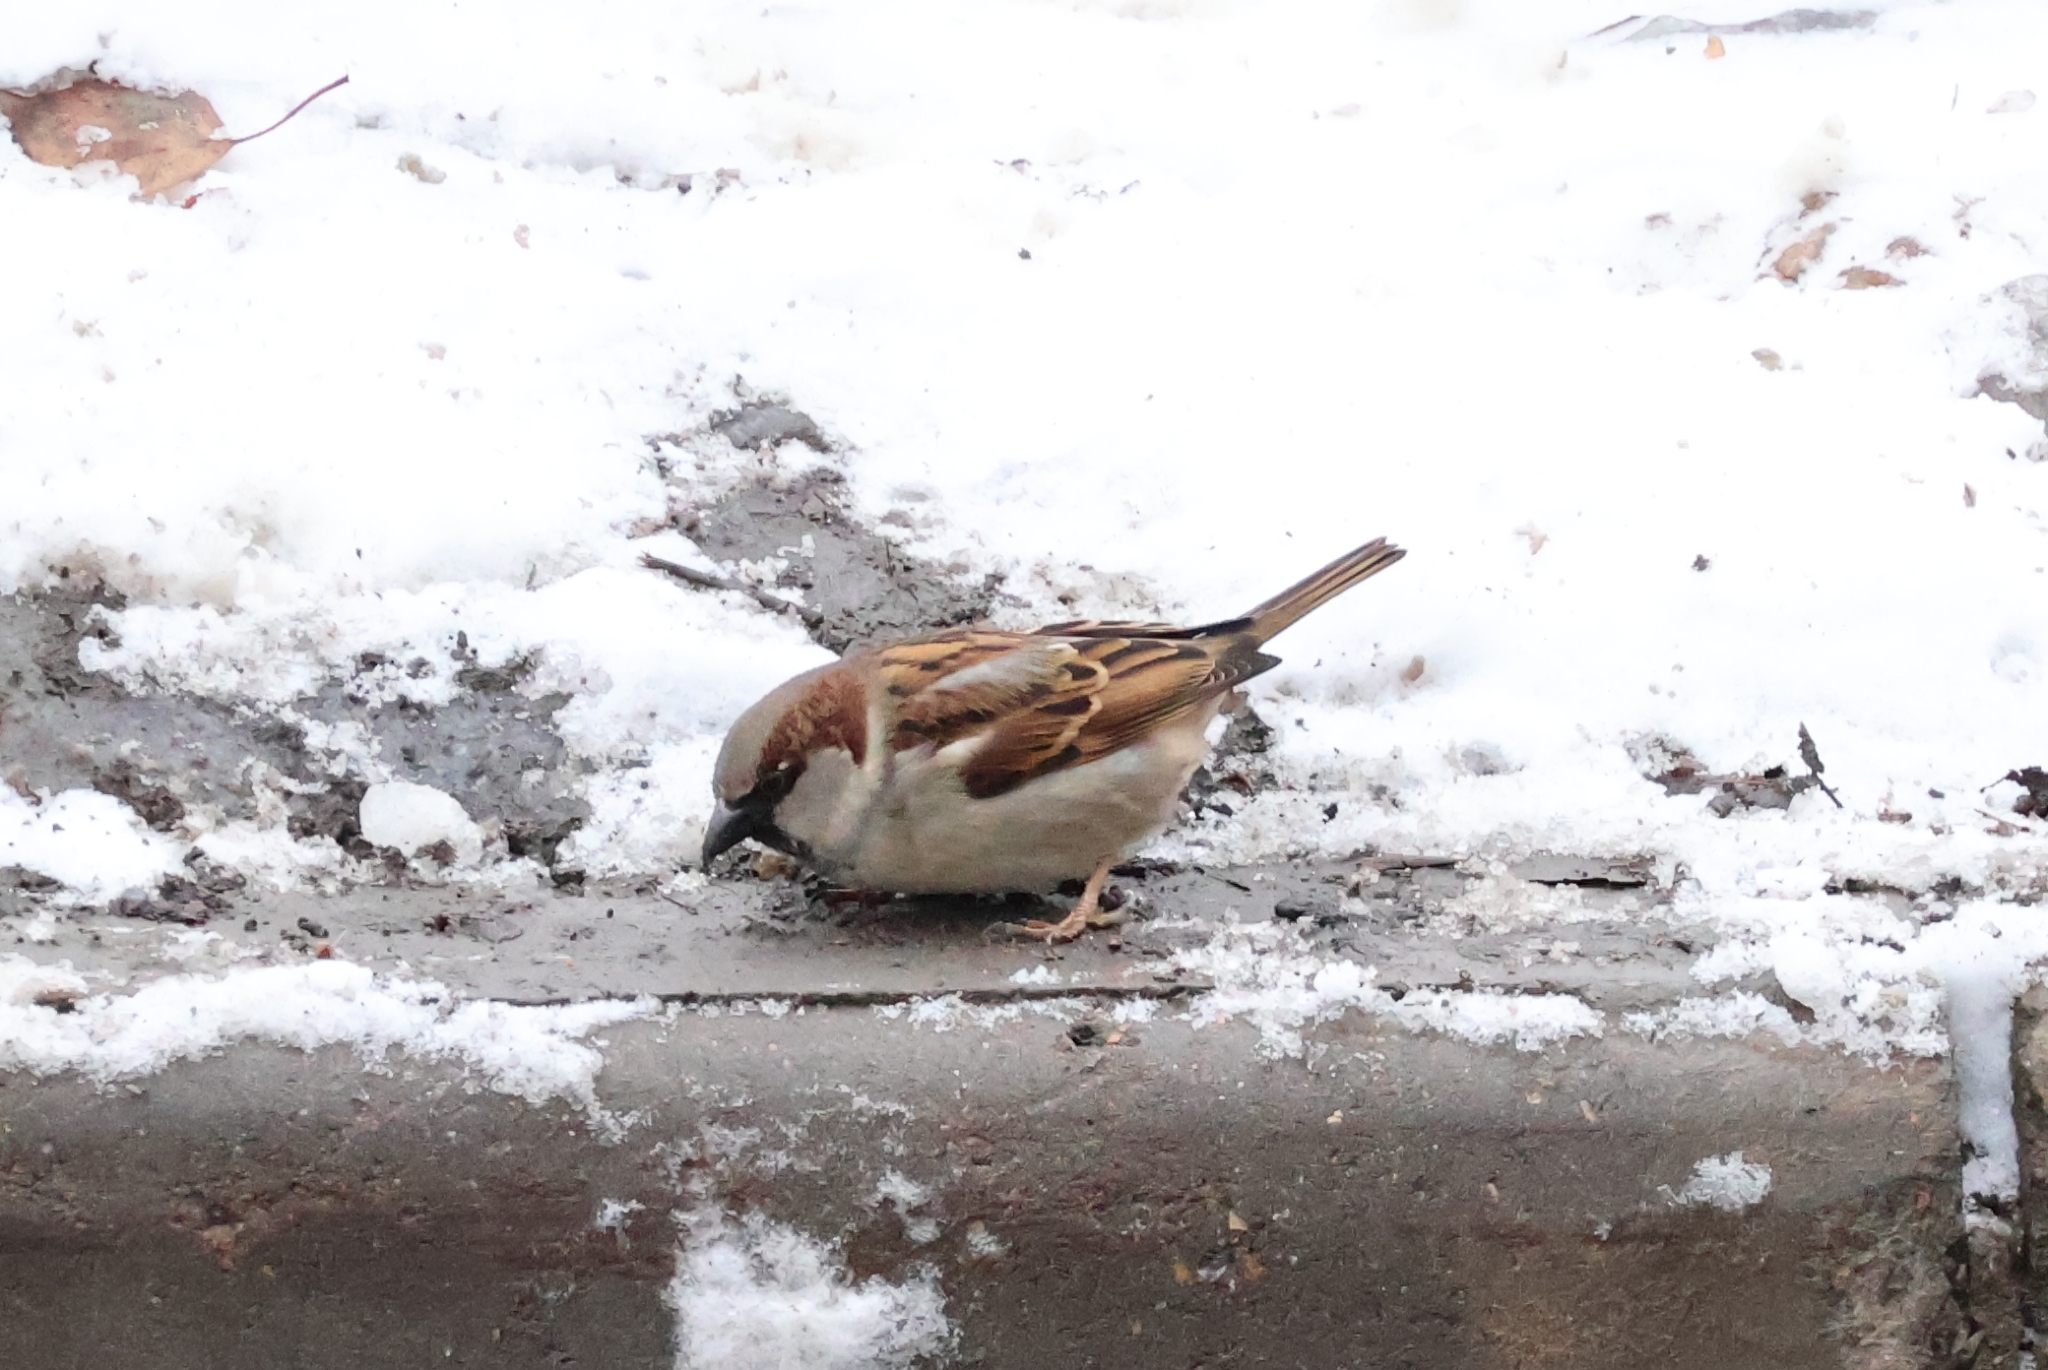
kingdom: Animalia
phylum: Chordata
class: Aves
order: Passeriformes
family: Passeridae
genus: Passer
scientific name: Passer domesticus
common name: House sparrow
